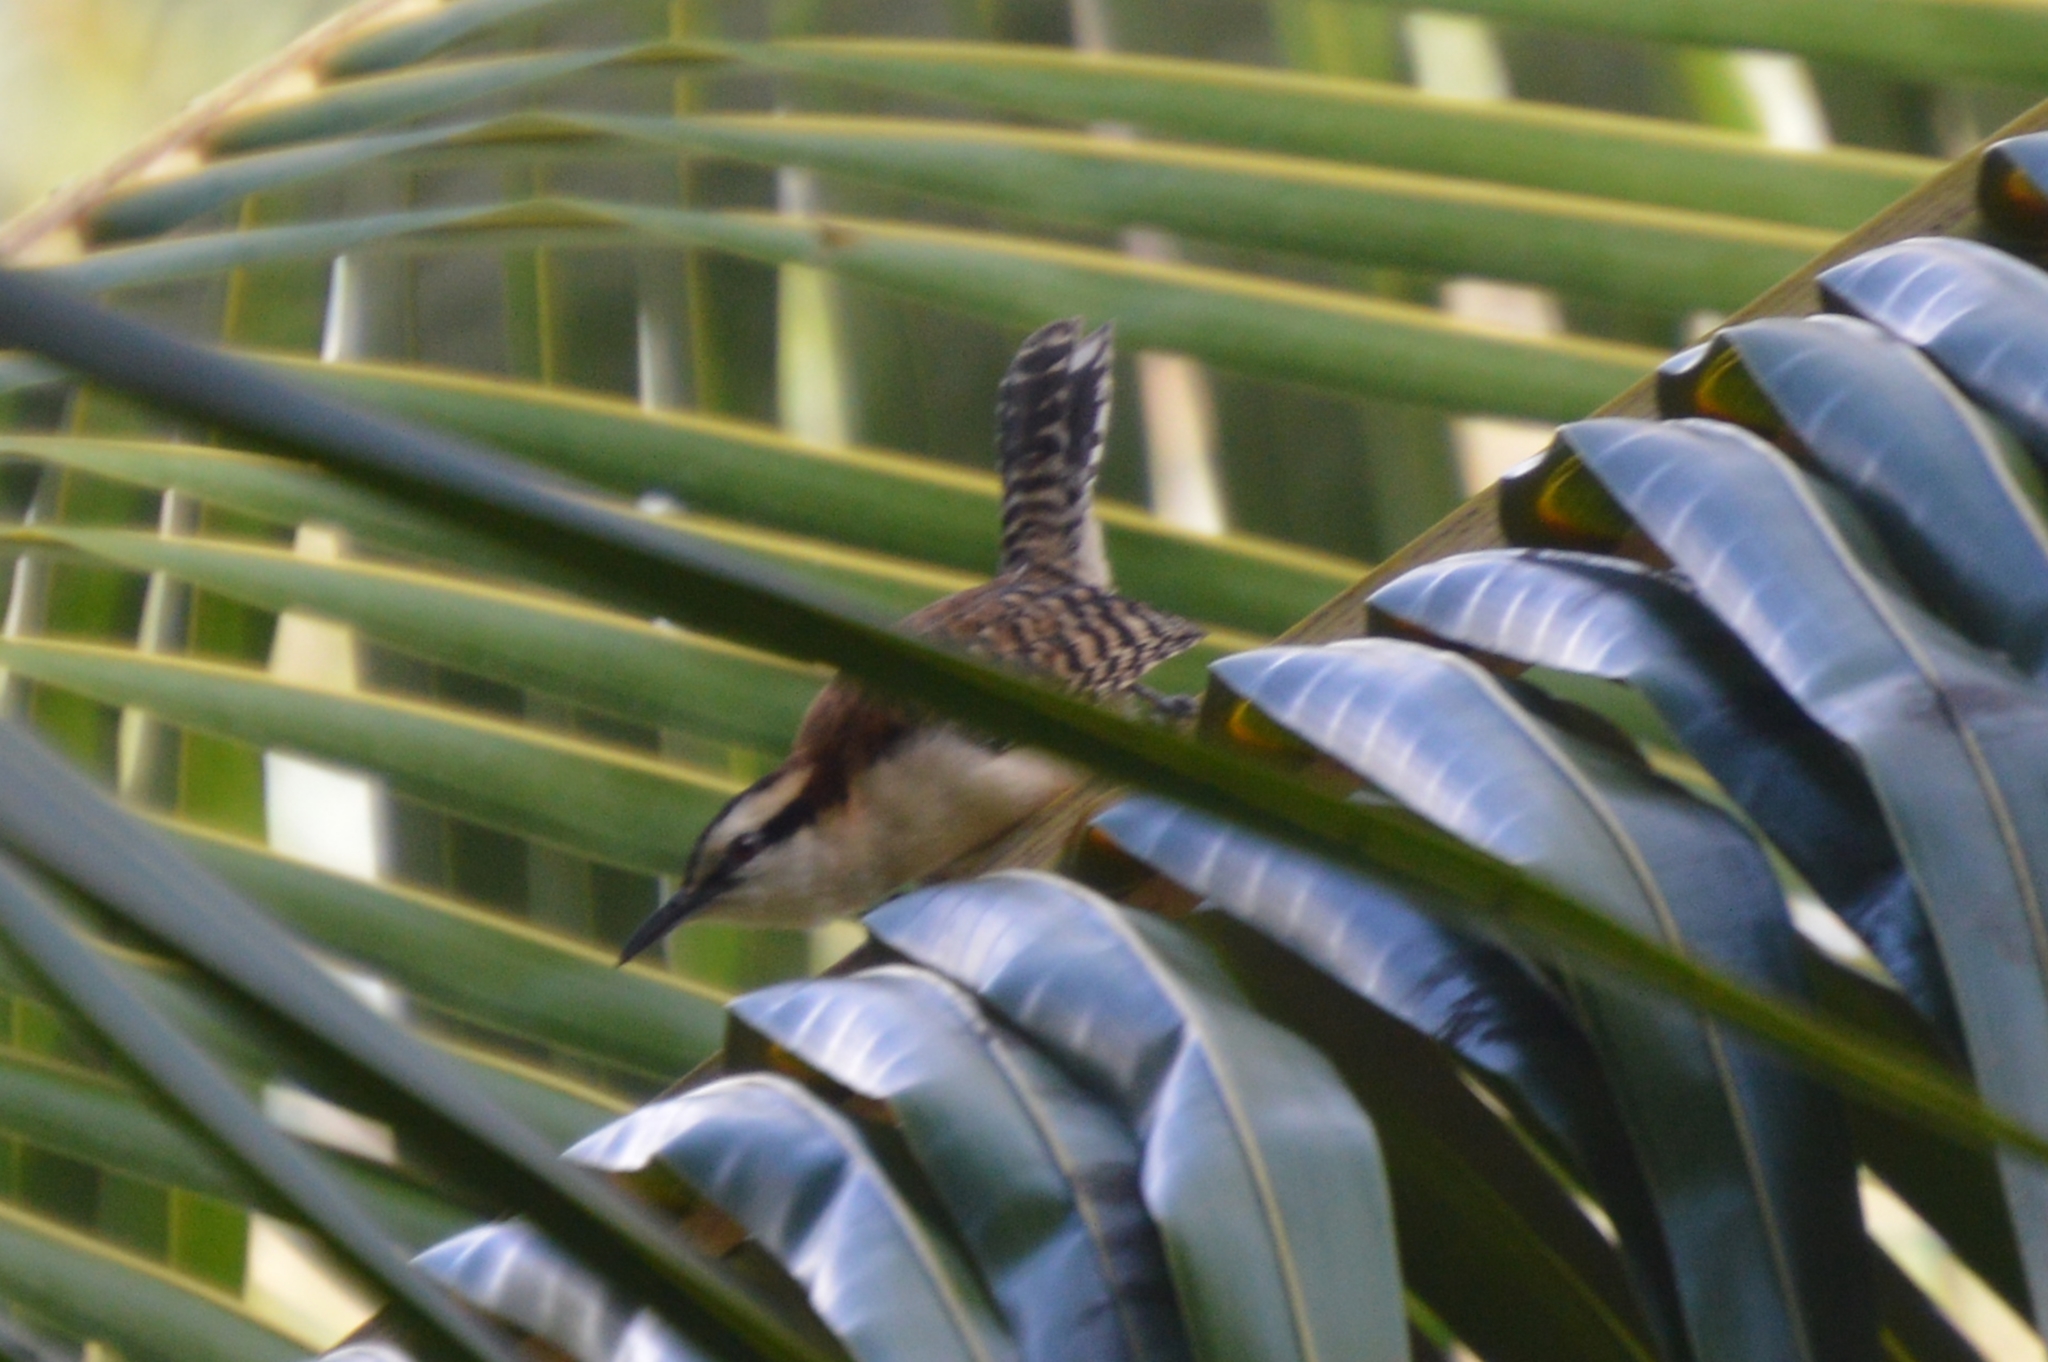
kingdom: Animalia
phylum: Chordata
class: Aves
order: Passeriformes
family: Troglodytidae
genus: Campylorhynchus
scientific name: Campylorhynchus rufinucha
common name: Rufous-naped wren
